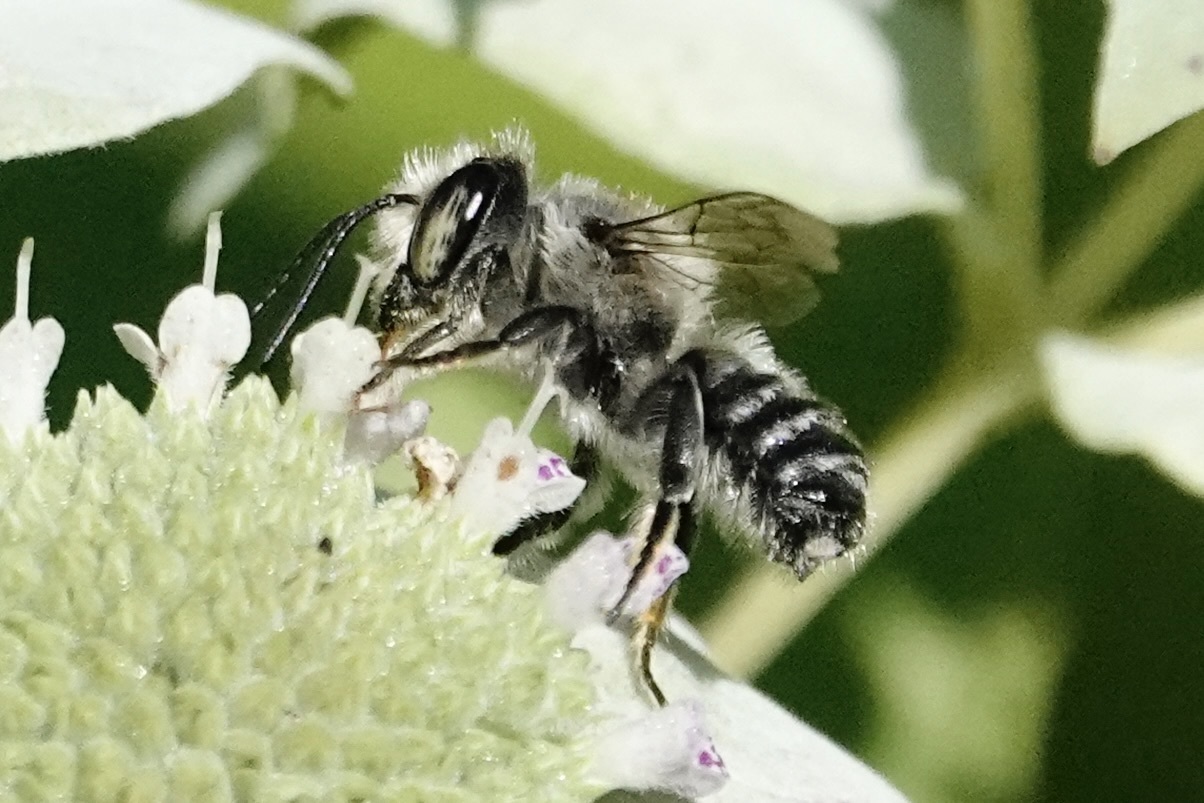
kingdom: Animalia
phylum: Arthropoda
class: Insecta
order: Hymenoptera
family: Megachilidae
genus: Megachile
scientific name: Megachile mendica
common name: Flat-tailed leafcutter
